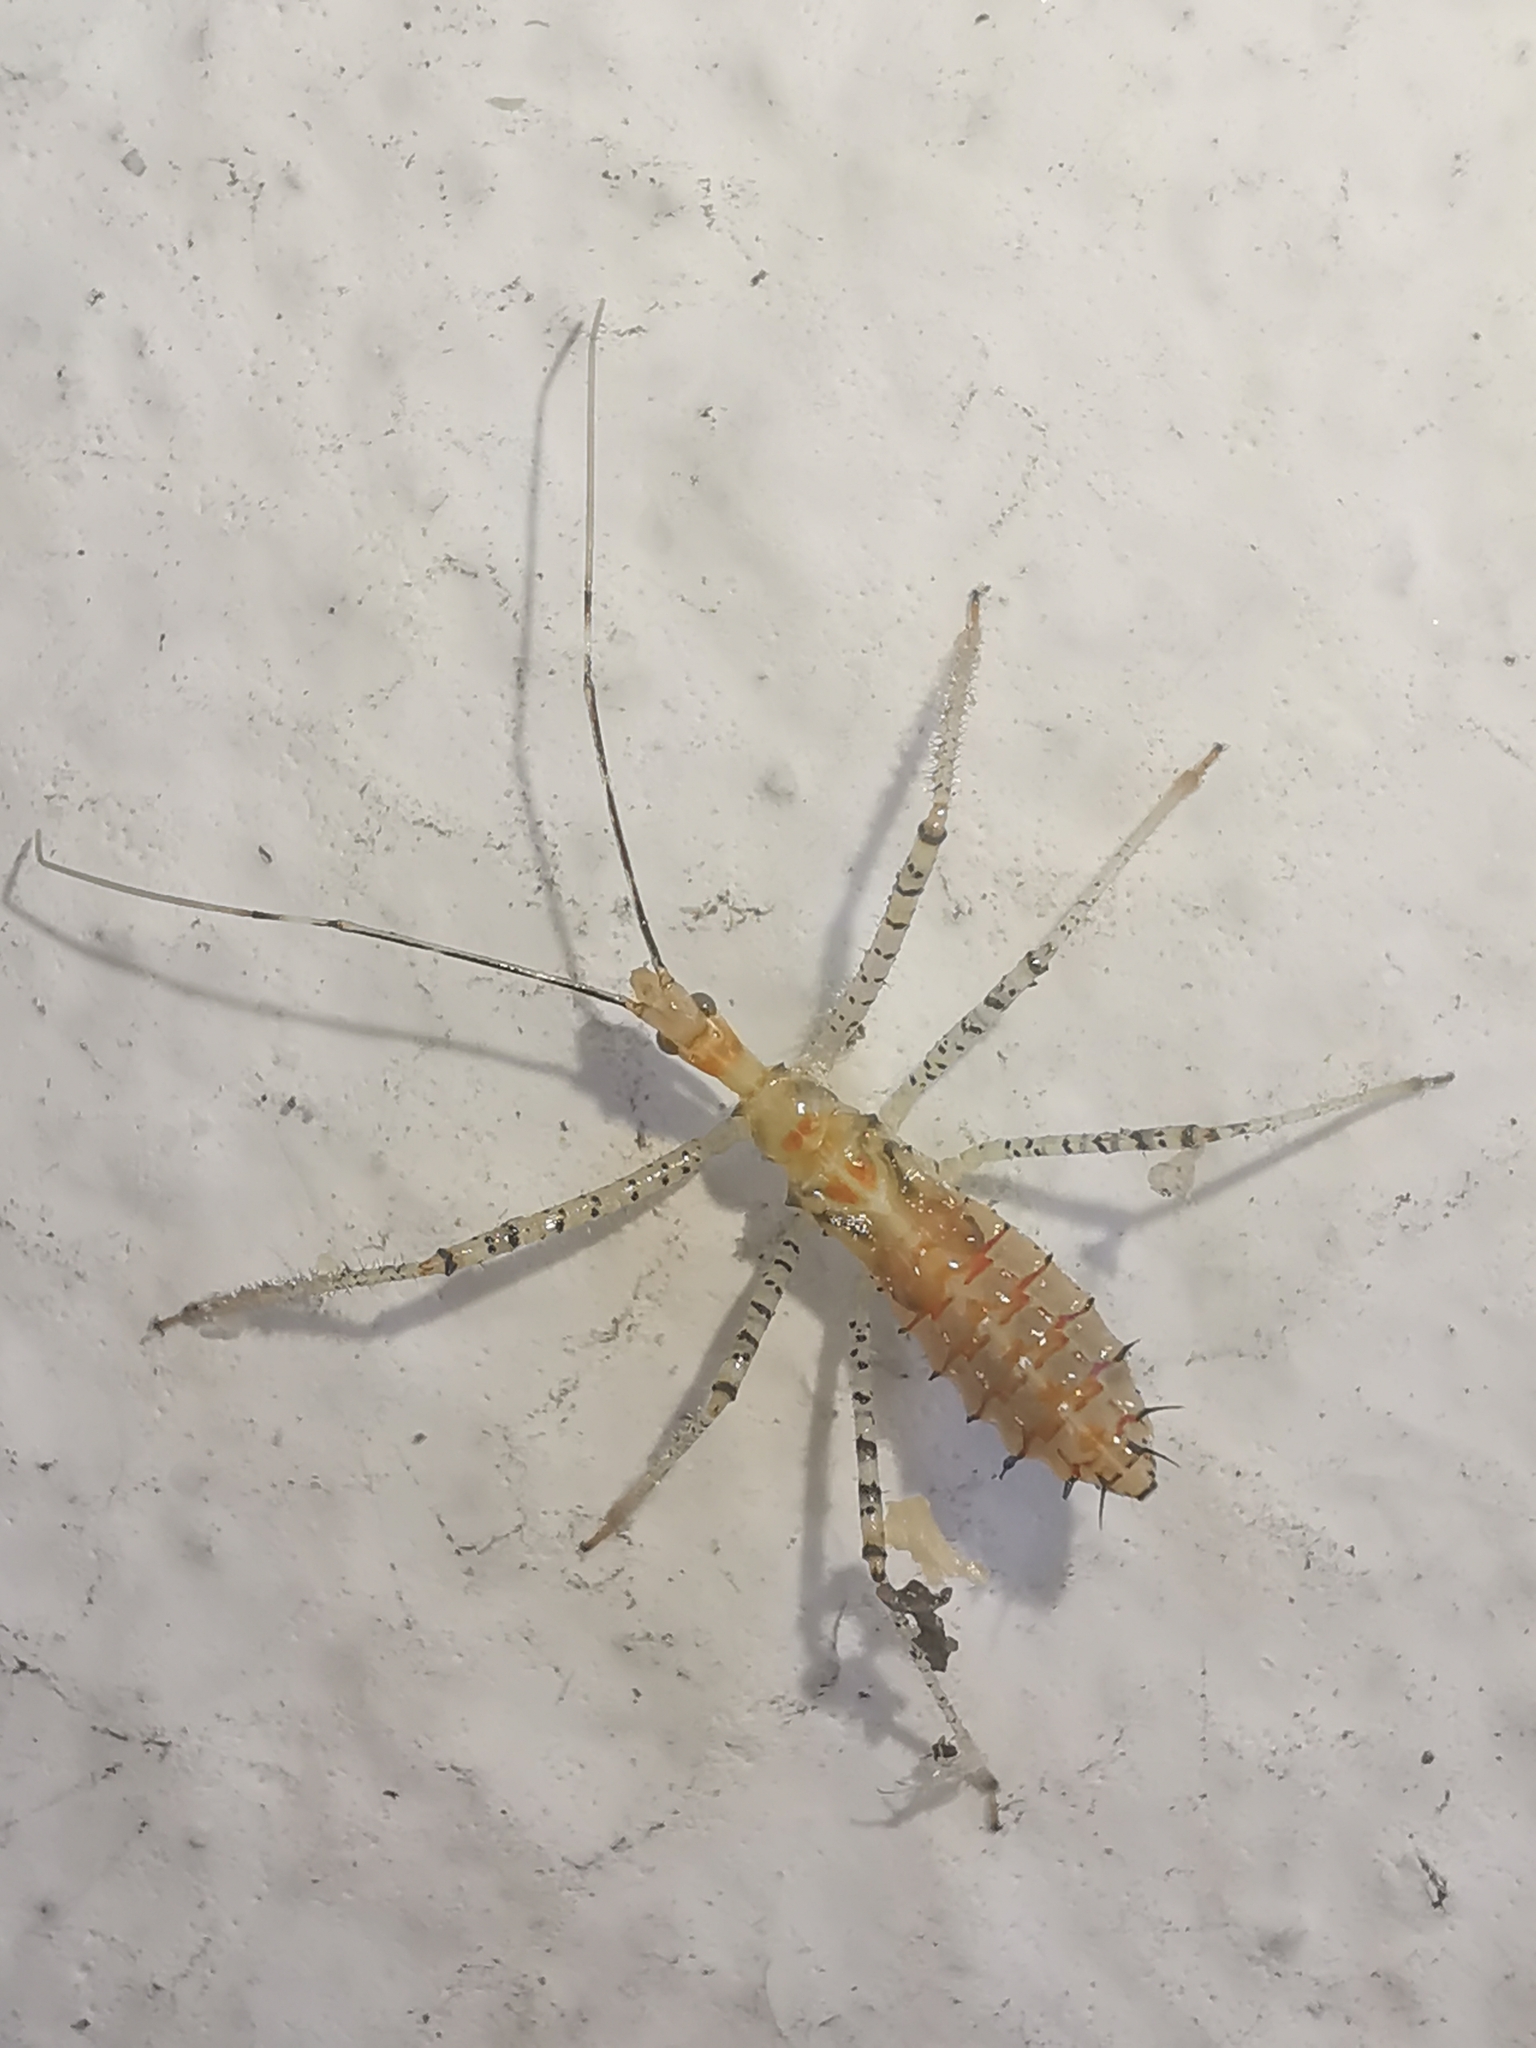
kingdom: Animalia
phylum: Arthropoda
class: Insecta
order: Hemiptera
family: Reduviidae
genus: Zelus
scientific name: Zelus renardii
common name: Assassin bug
